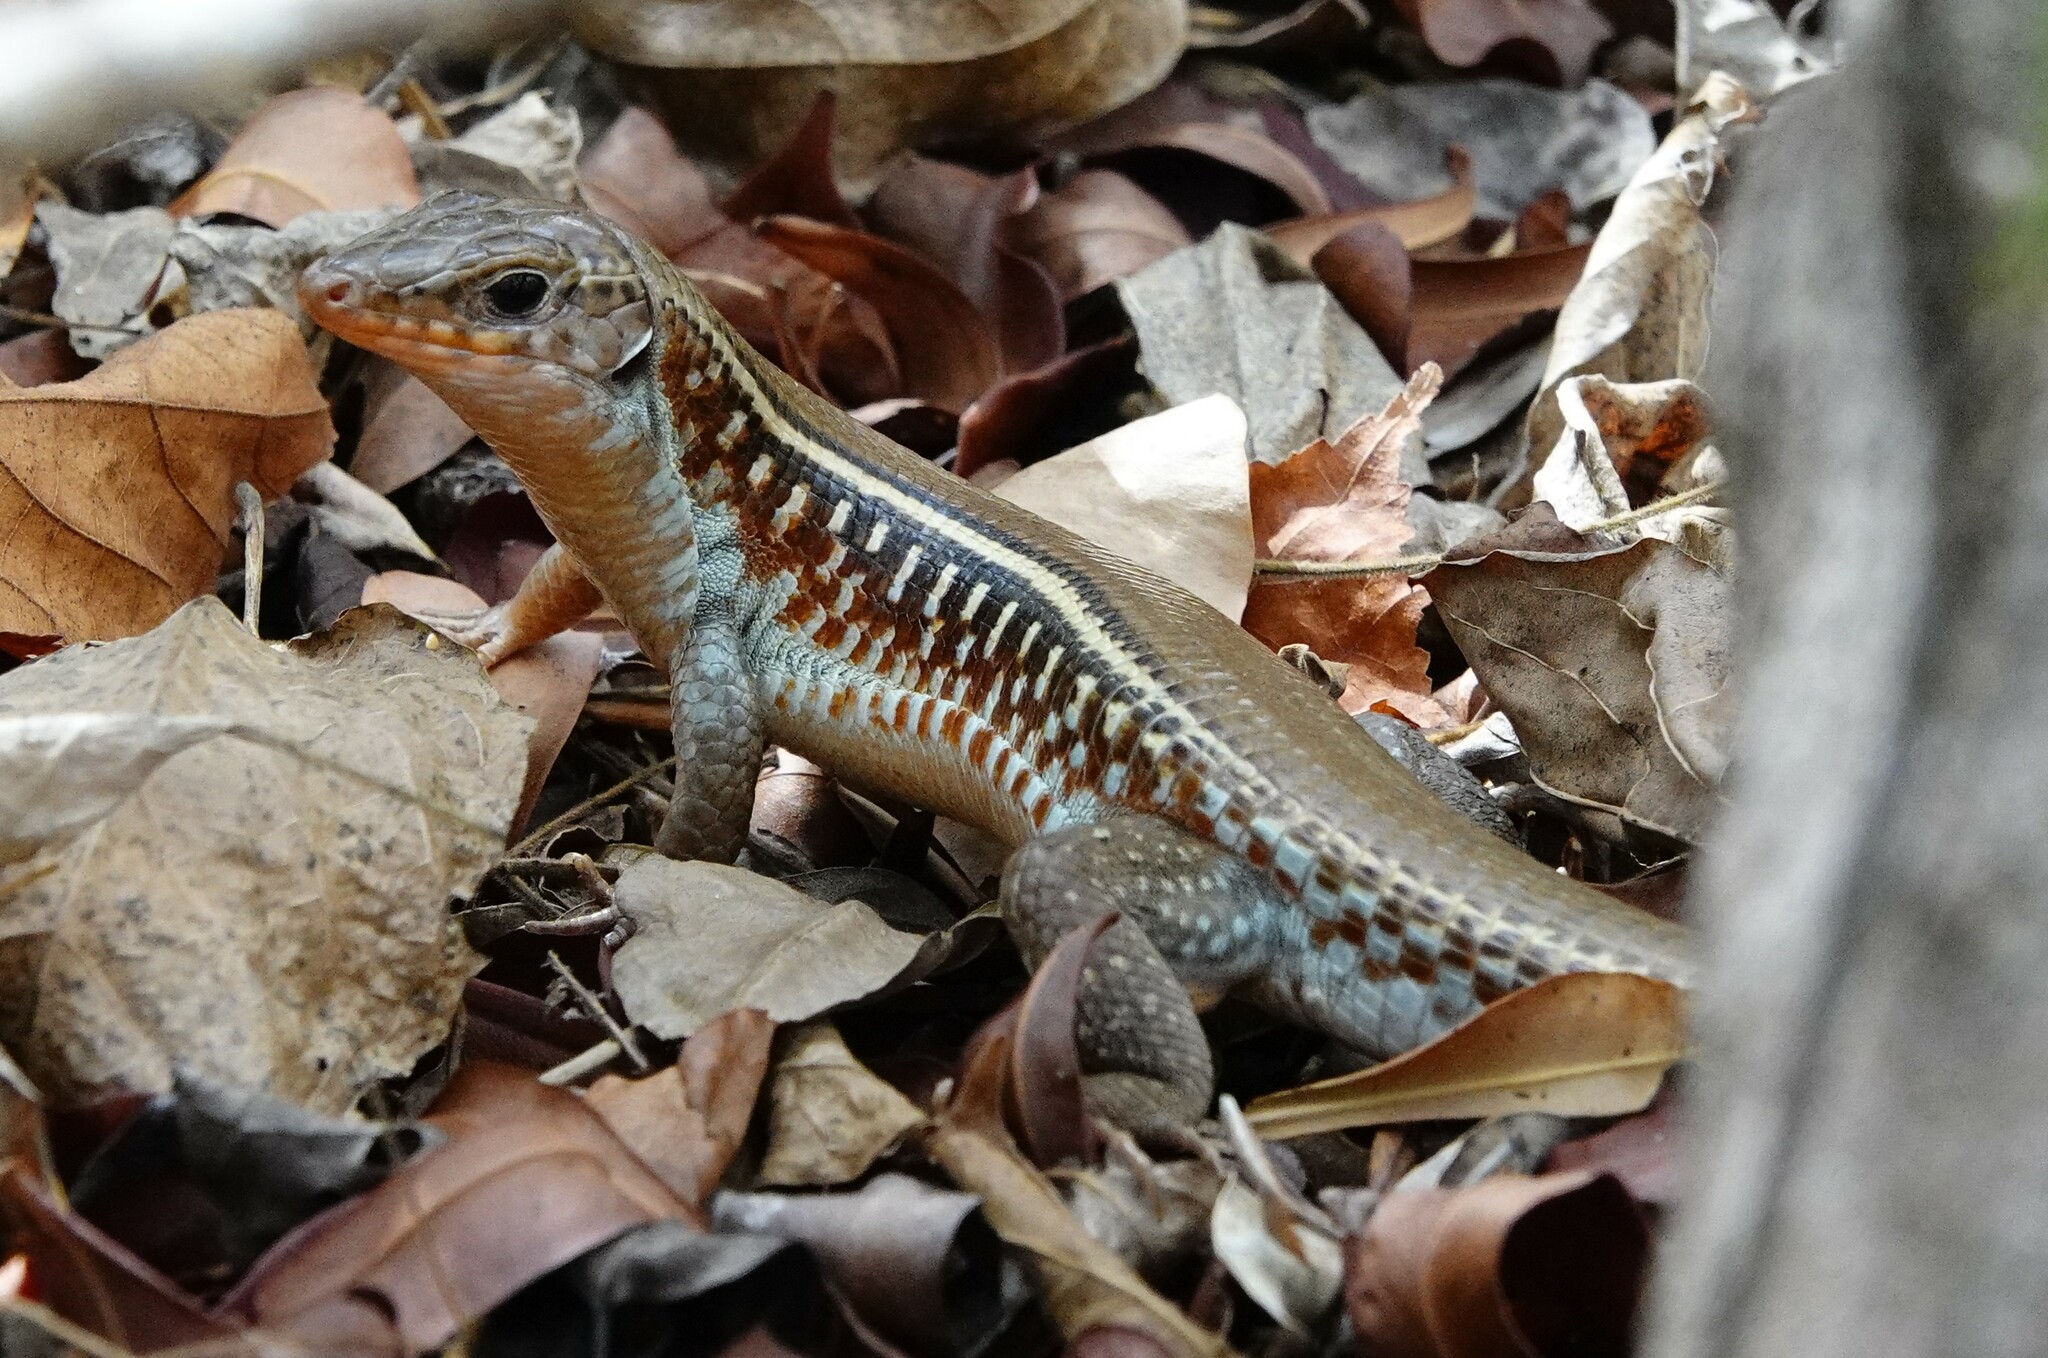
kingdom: Animalia
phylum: Chordata
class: Squamata
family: Gerrhosauridae
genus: Zonosaurus
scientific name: Zonosaurus karsteni
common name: Karsten's girdled lizard
